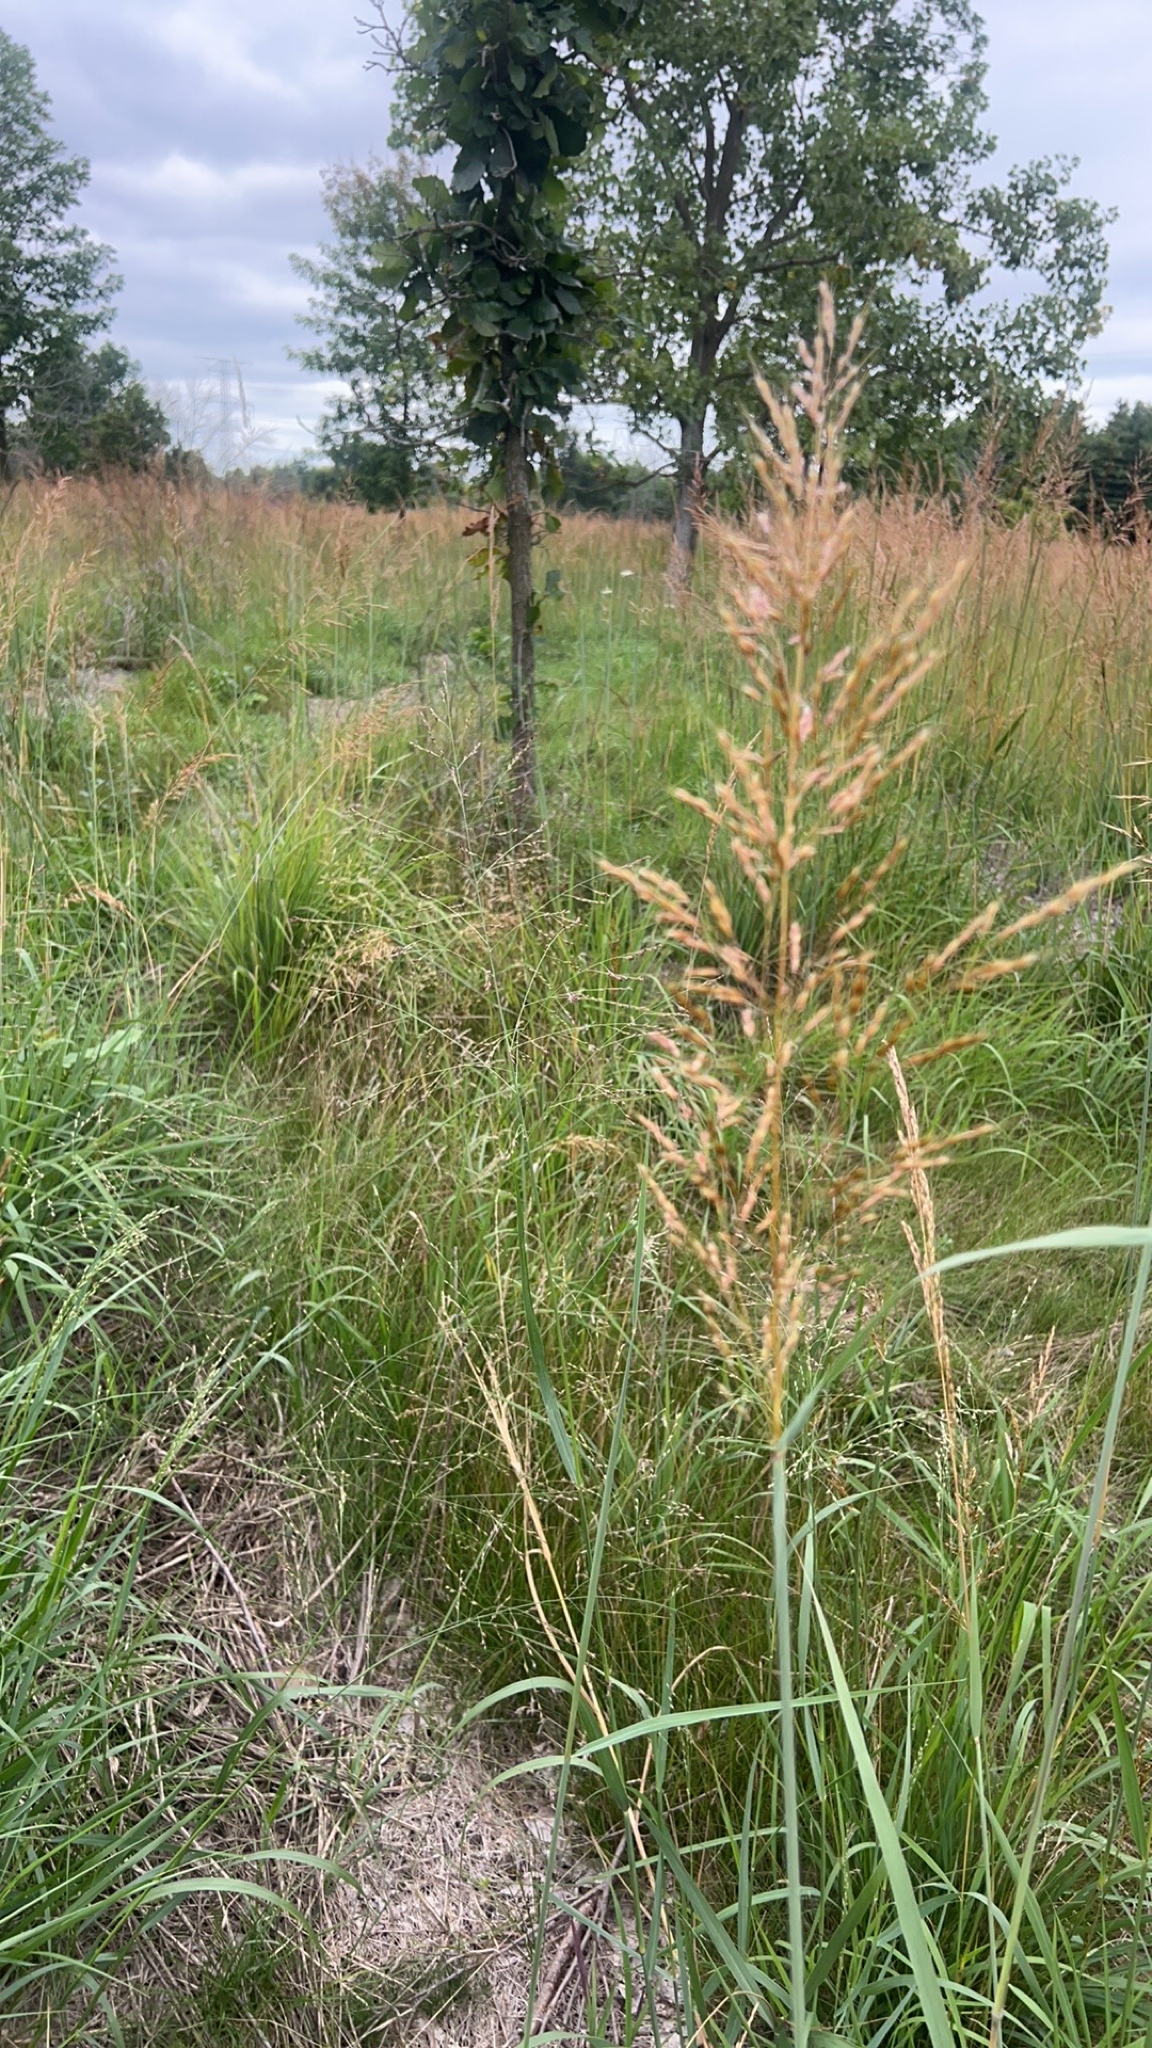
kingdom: Plantae
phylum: Tracheophyta
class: Liliopsida
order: Poales
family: Poaceae
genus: Sorghastrum
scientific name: Sorghastrum nutans
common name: Indian grass
